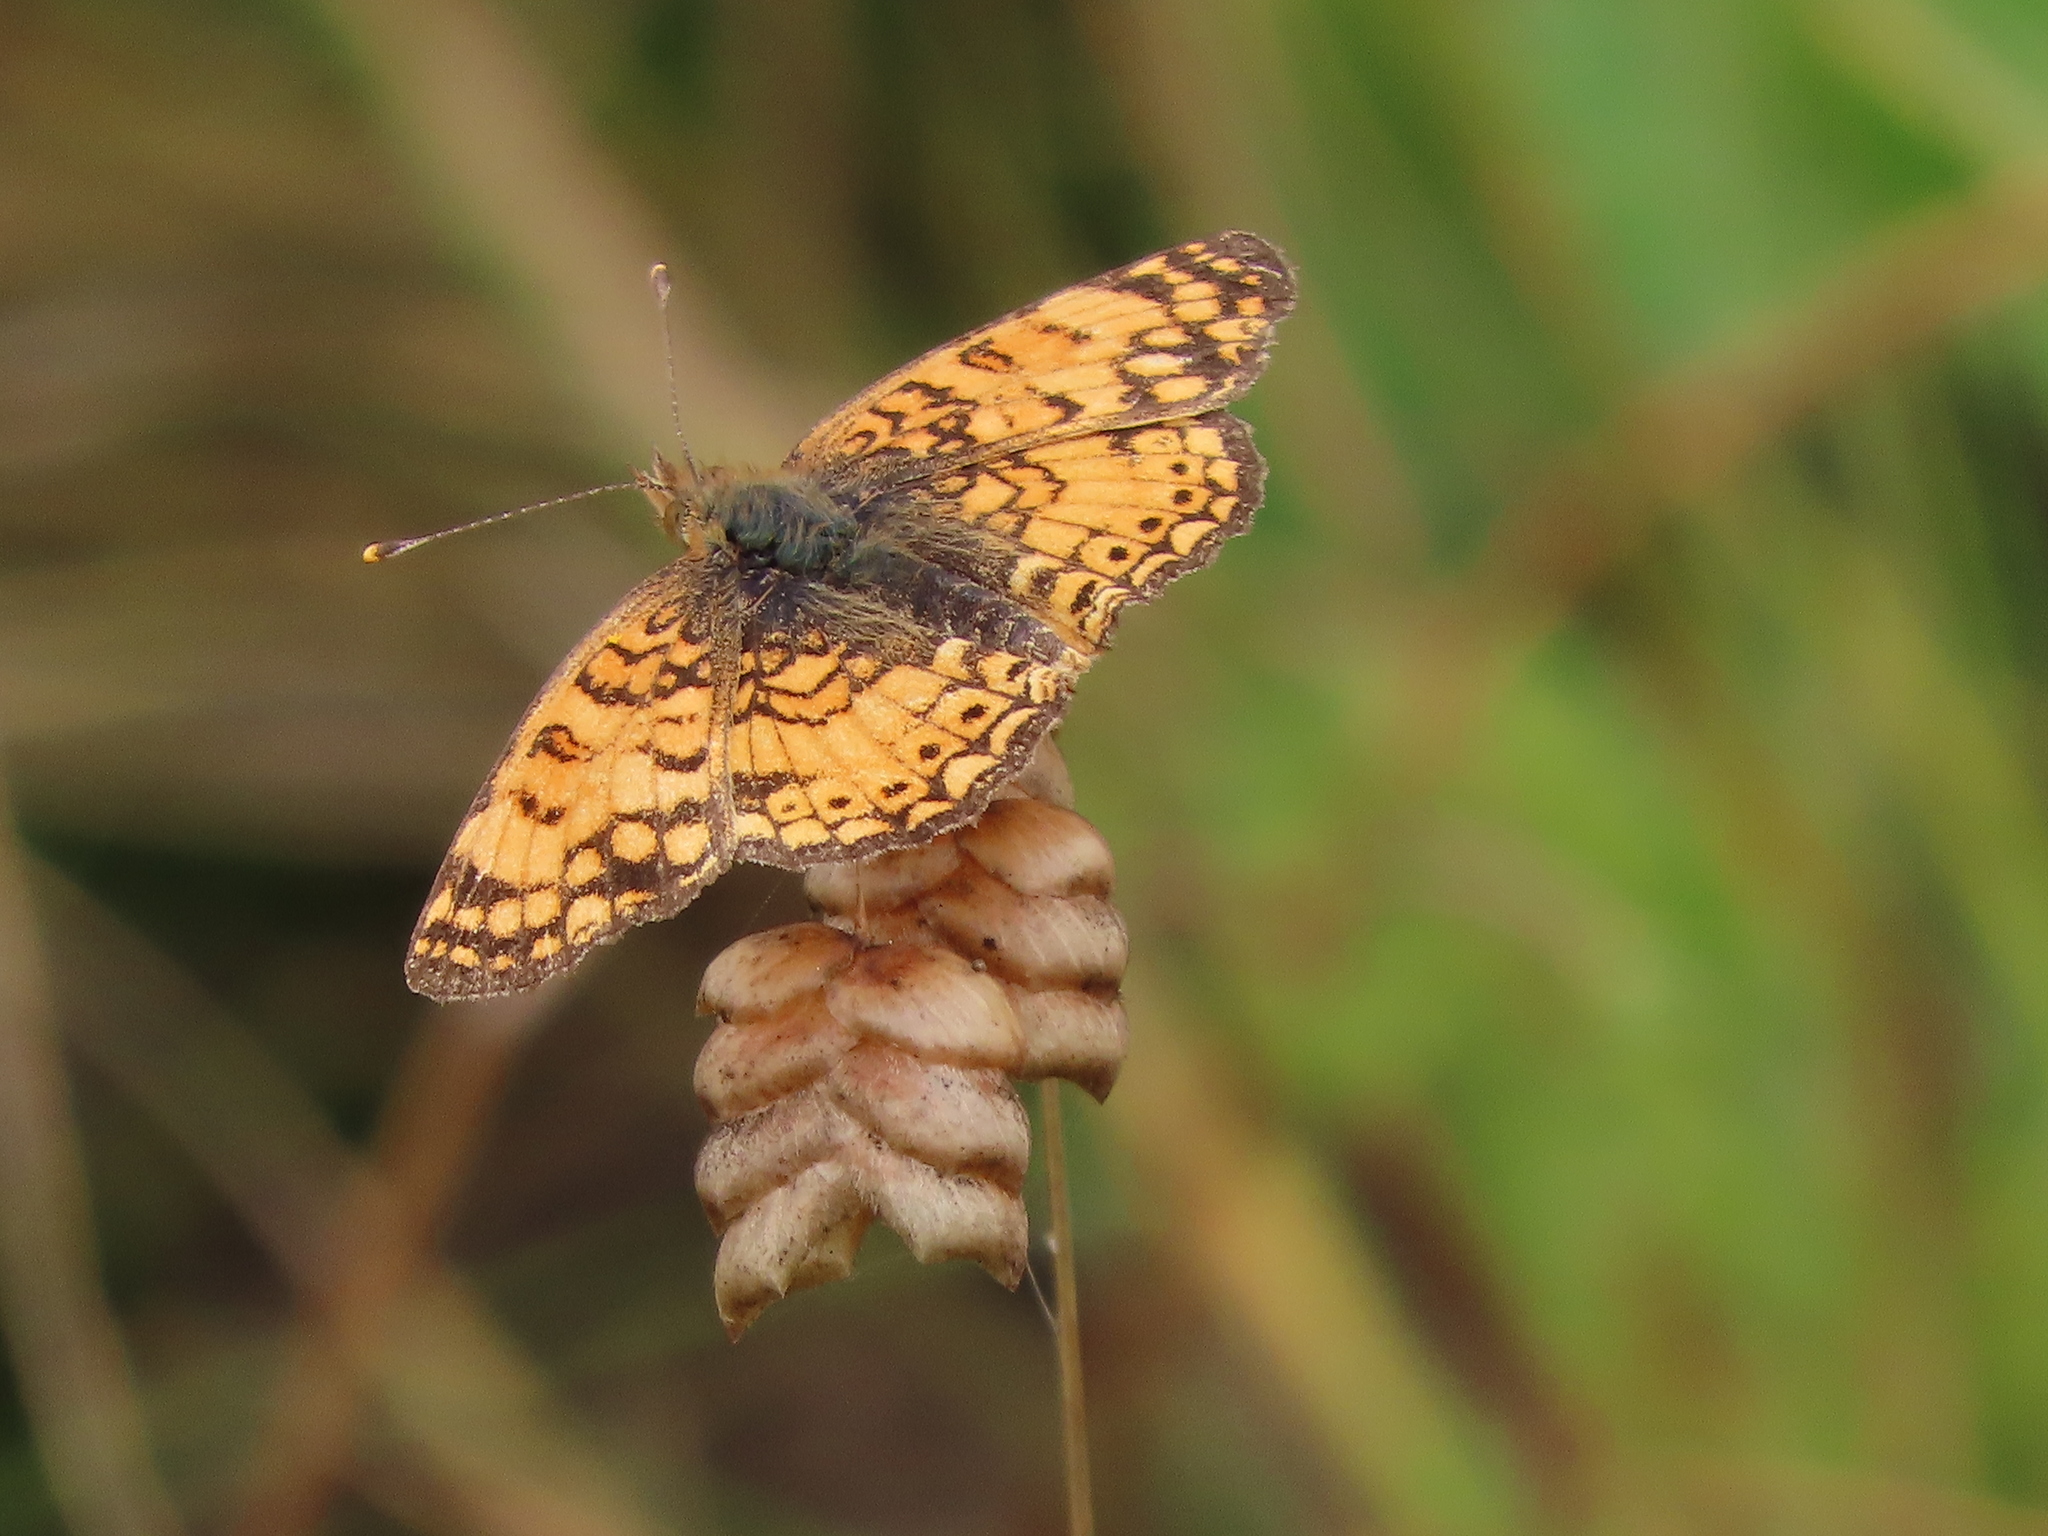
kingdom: Animalia
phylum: Arthropoda
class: Insecta
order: Lepidoptera
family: Nymphalidae
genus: Eresia
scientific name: Eresia aveyrona
